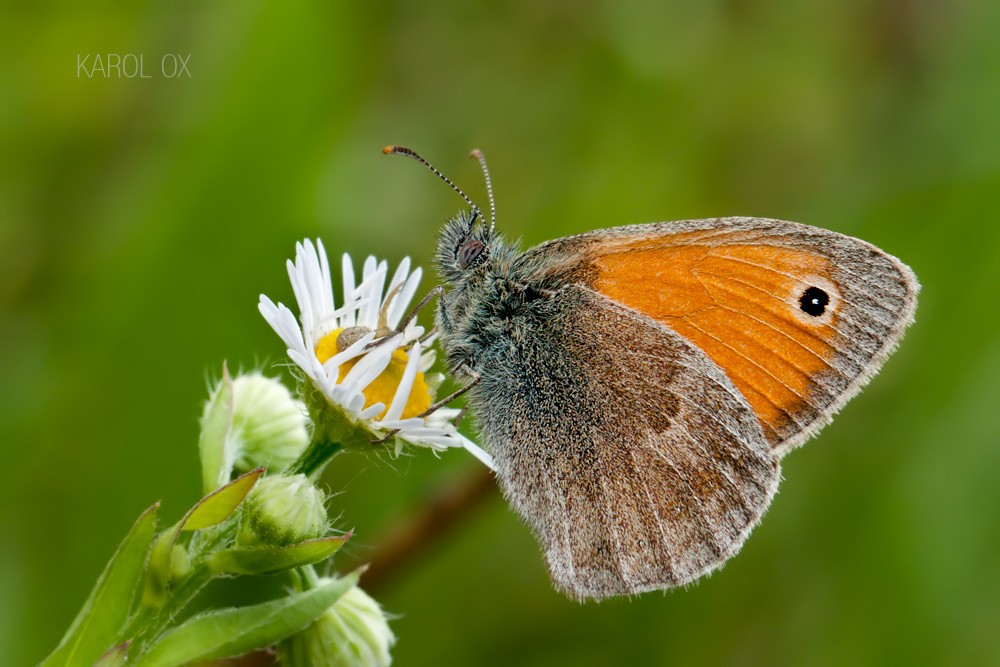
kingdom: Animalia
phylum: Arthropoda
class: Insecta
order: Lepidoptera
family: Nymphalidae
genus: Coenonympha
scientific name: Coenonympha pamphilus
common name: Small heath
